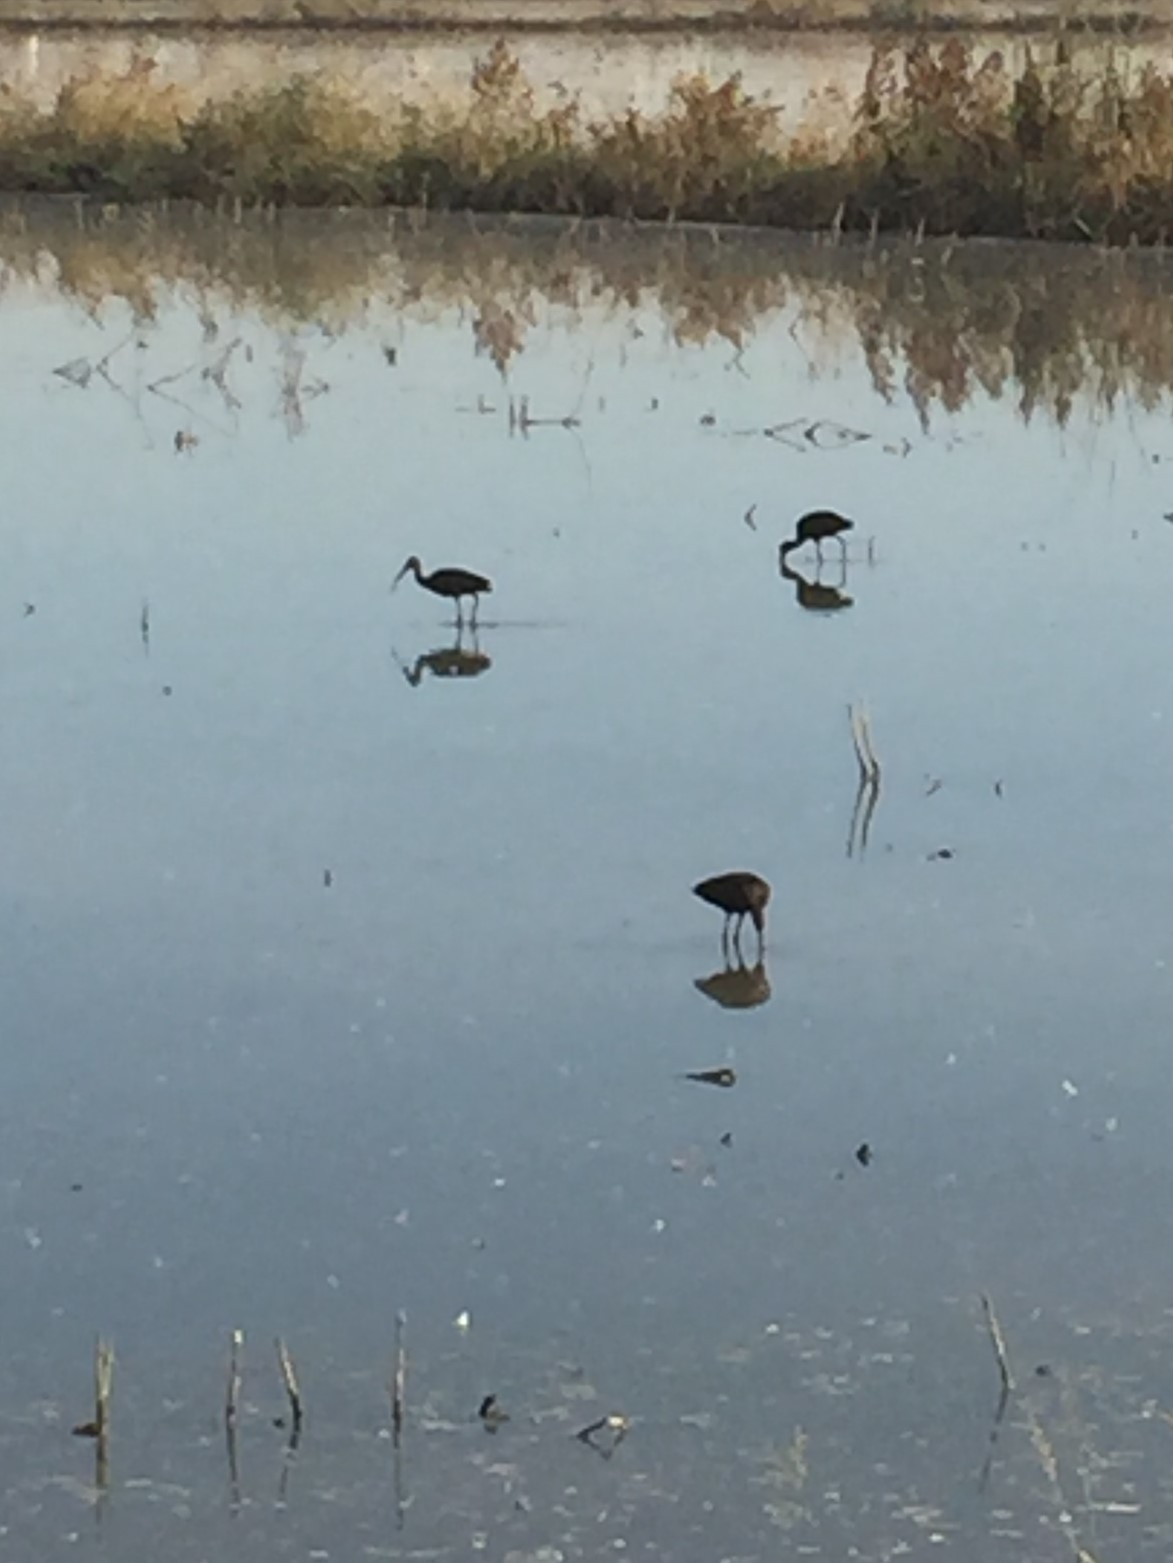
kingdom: Animalia
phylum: Chordata
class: Aves
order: Pelecaniformes
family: Threskiornithidae
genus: Plegadis
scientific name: Plegadis chihi
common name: White-faced ibis
